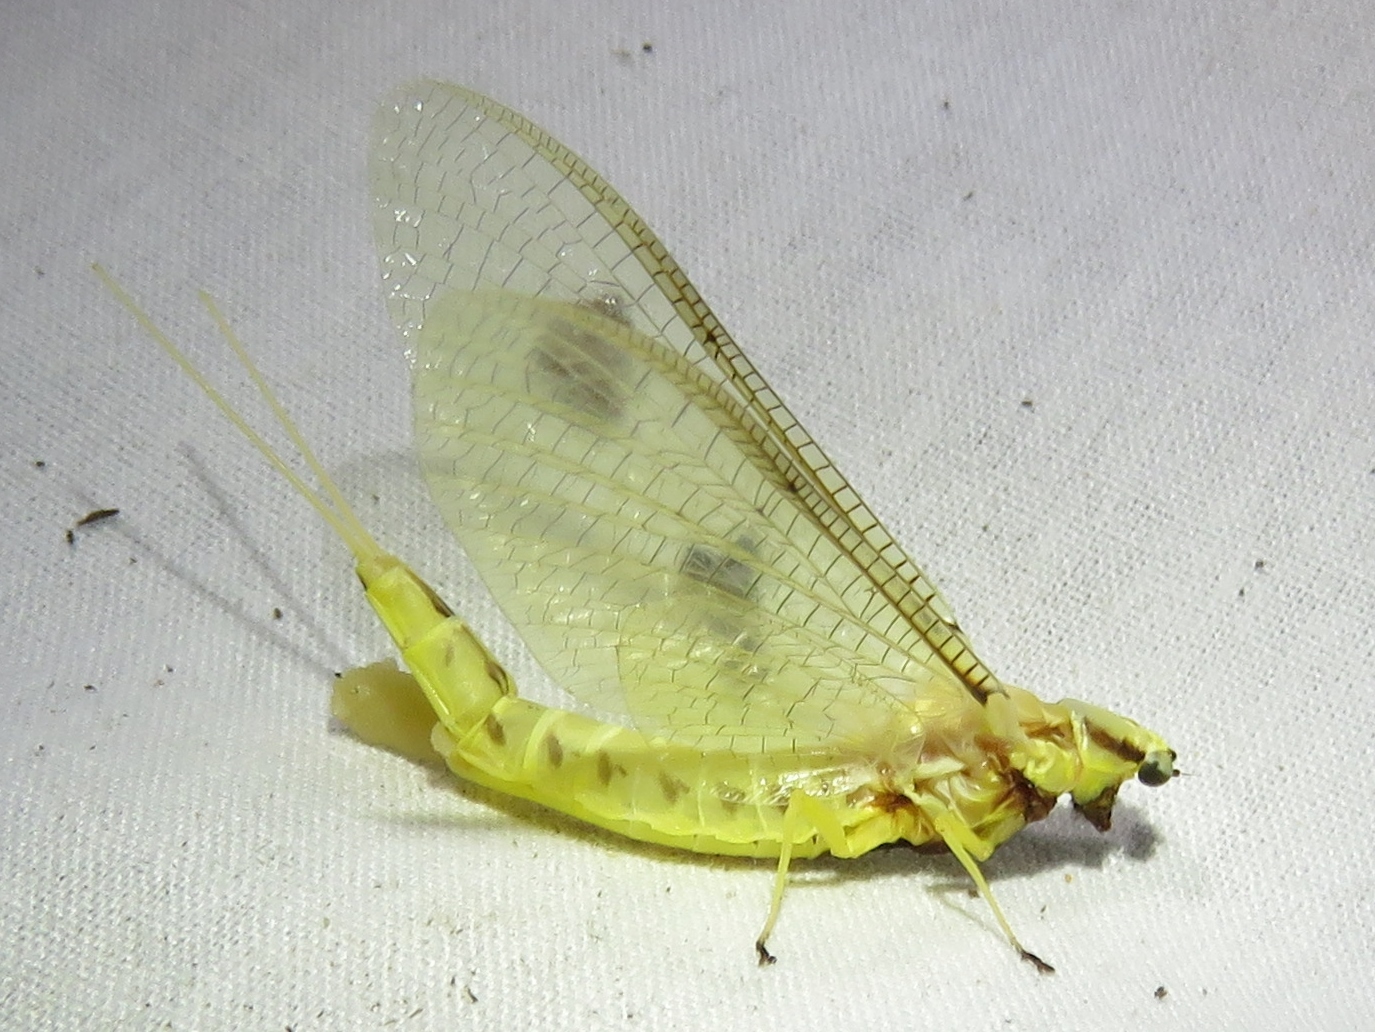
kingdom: Animalia
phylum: Arthropoda
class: Insecta
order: Ephemeroptera
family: Ephemeridae
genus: Hexagenia
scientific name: Hexagenia limbata
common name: Giant mayfly
